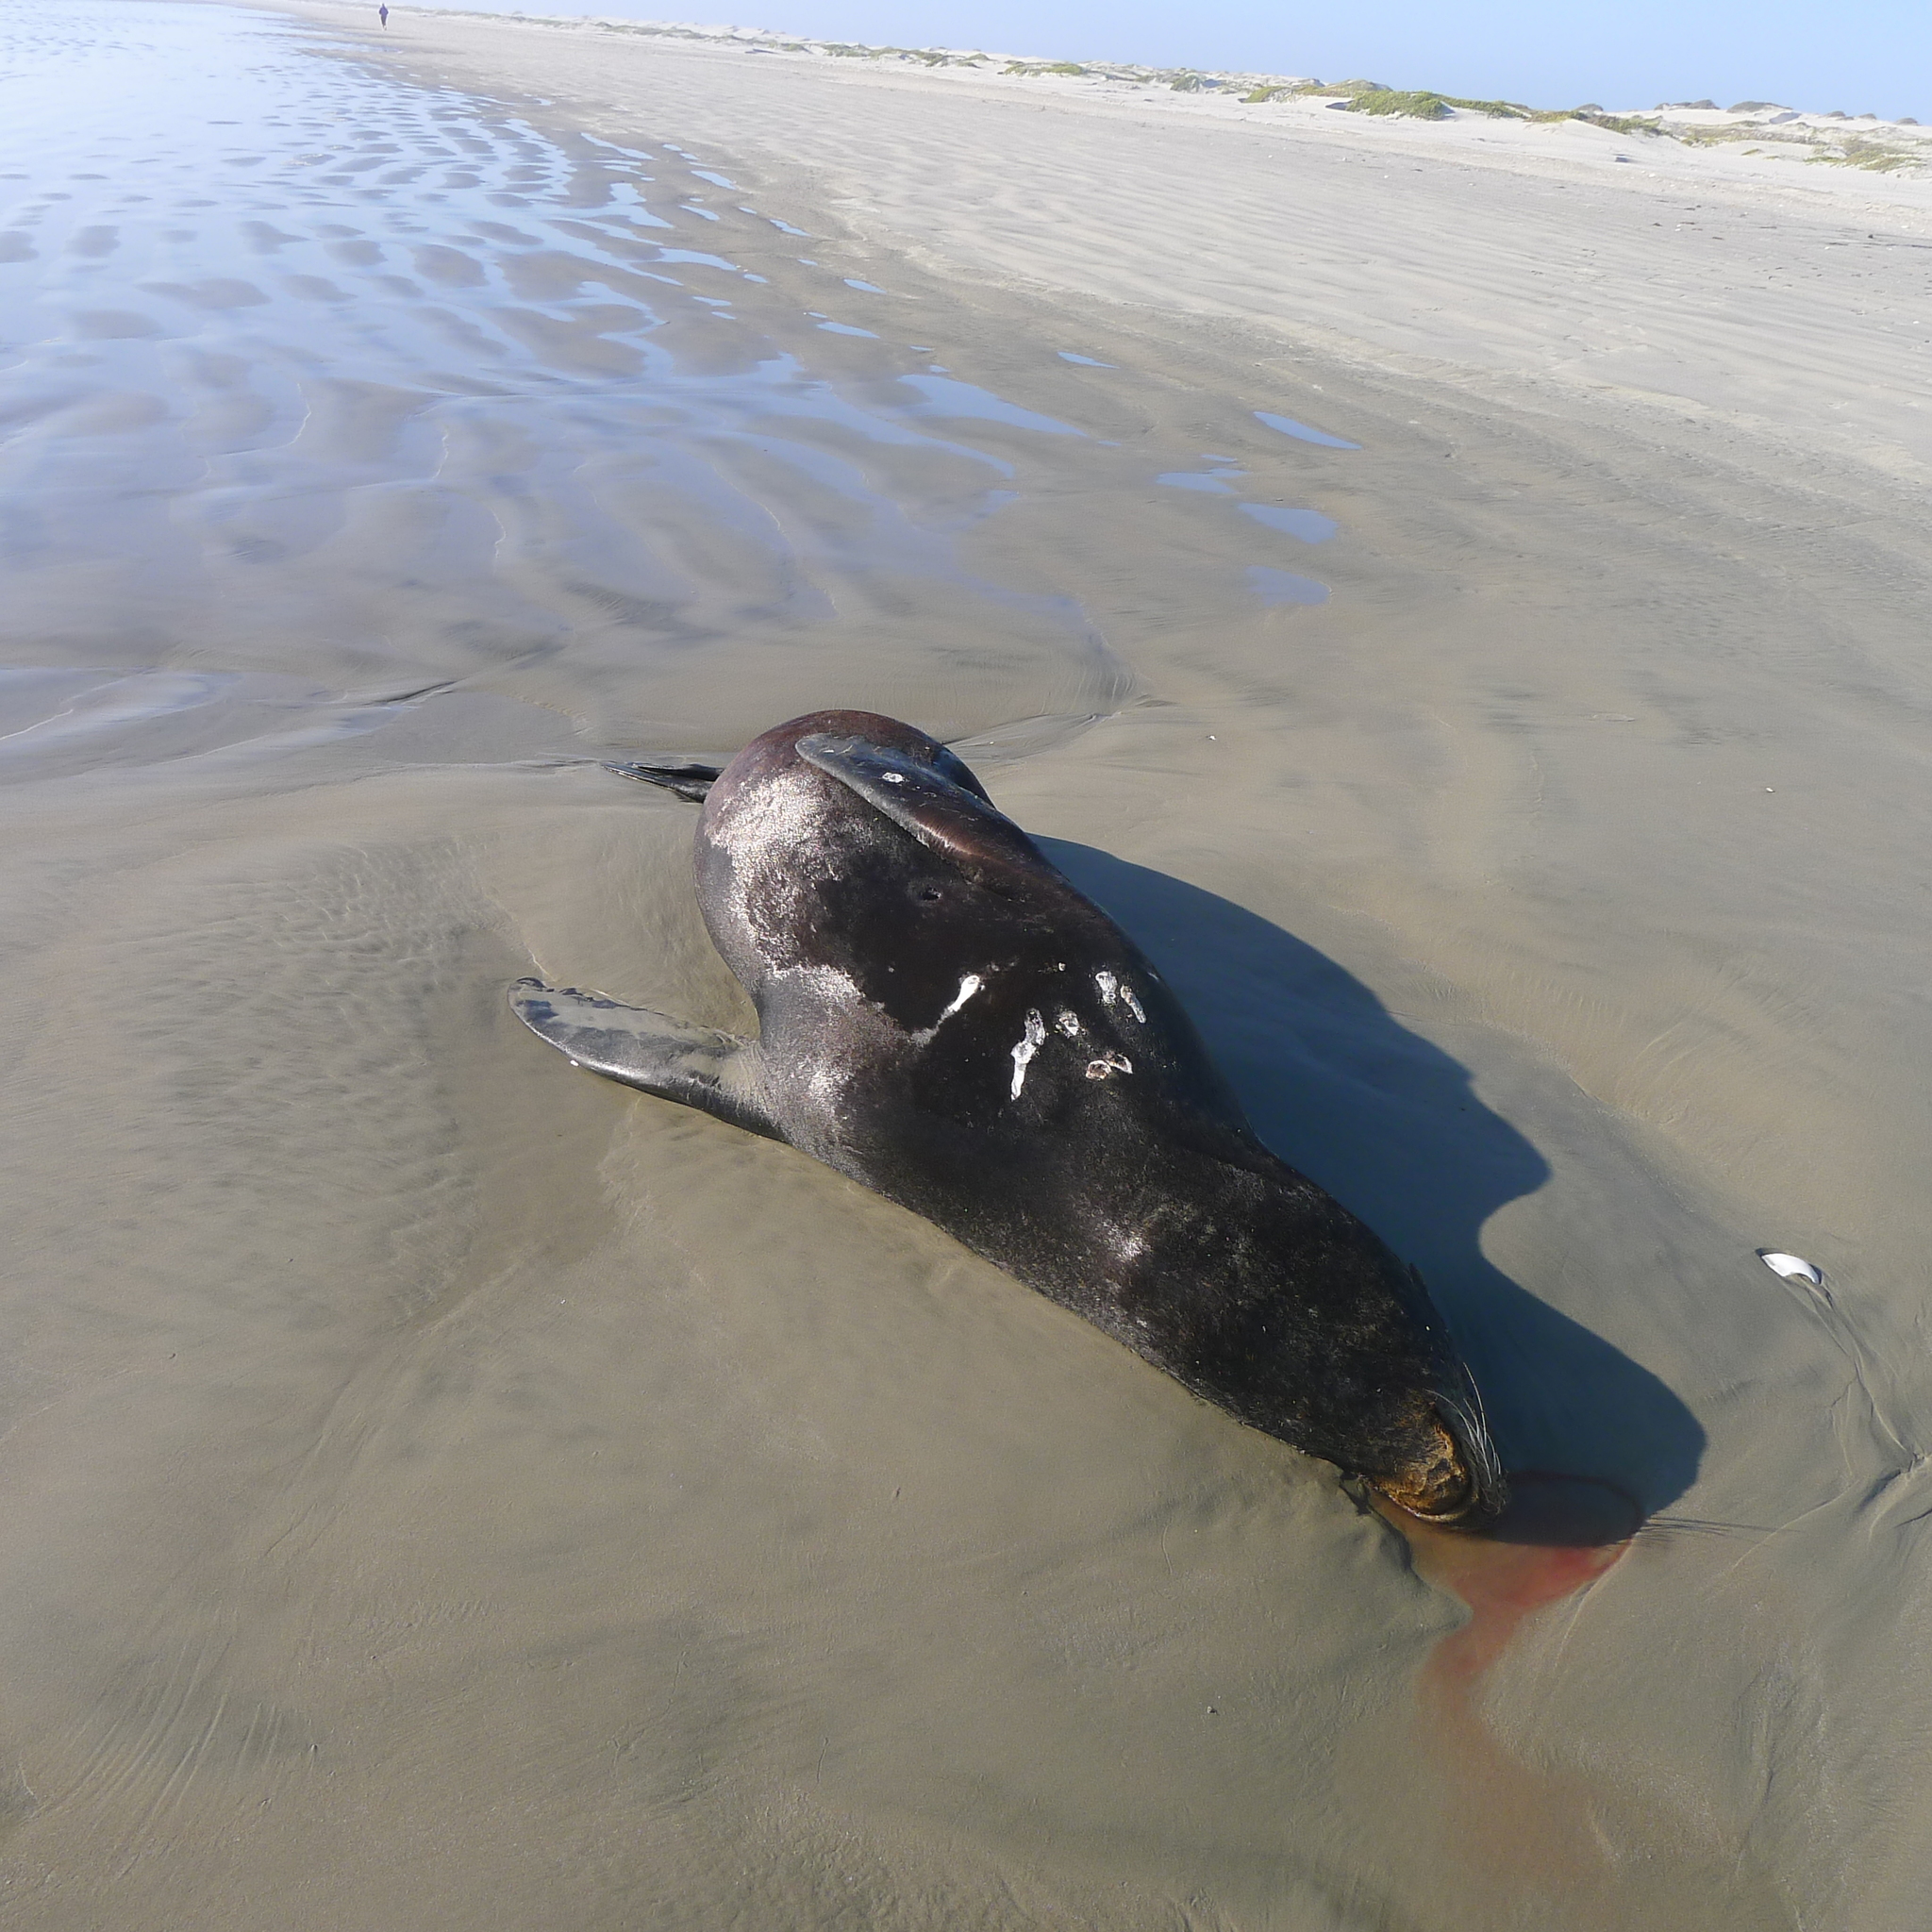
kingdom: Animalia
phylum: Chordata
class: Mammalia
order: Carnivora
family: Otariidae
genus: Zalophus
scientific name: Zalophus californianus
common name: California sea lion
